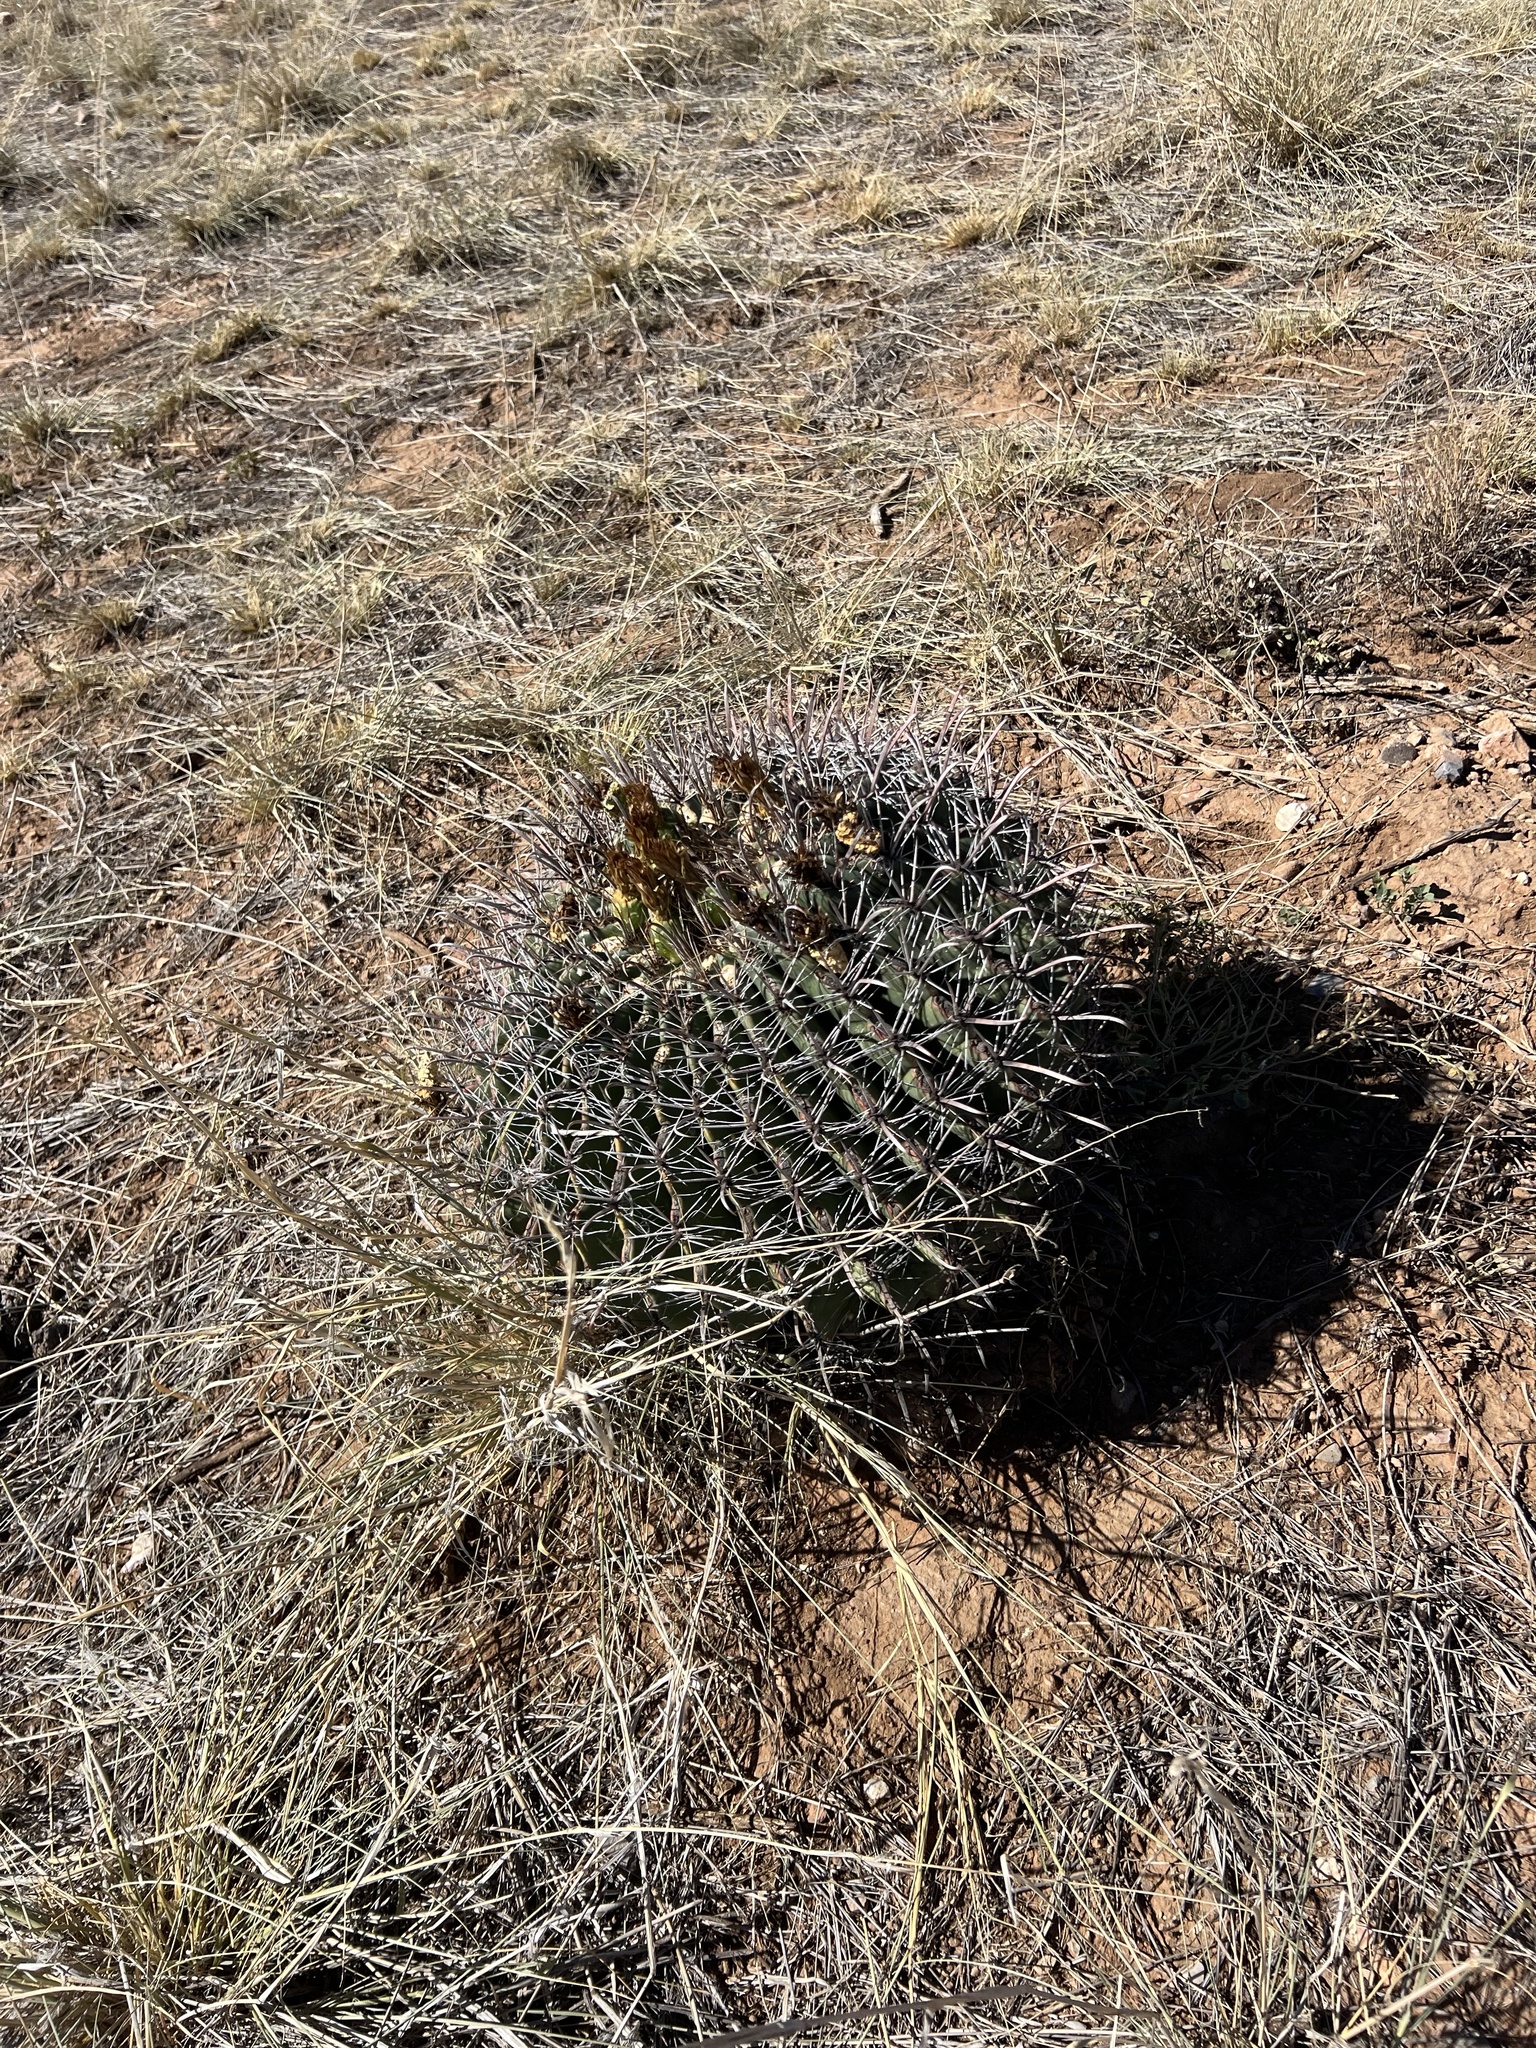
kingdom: Plantae
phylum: Tracheophyta
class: Magnoliopsida
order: Caryophyllales
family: Cactaceae
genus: Ferocactus
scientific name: Ferocactus wislizeni
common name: Candy barrel cactus
